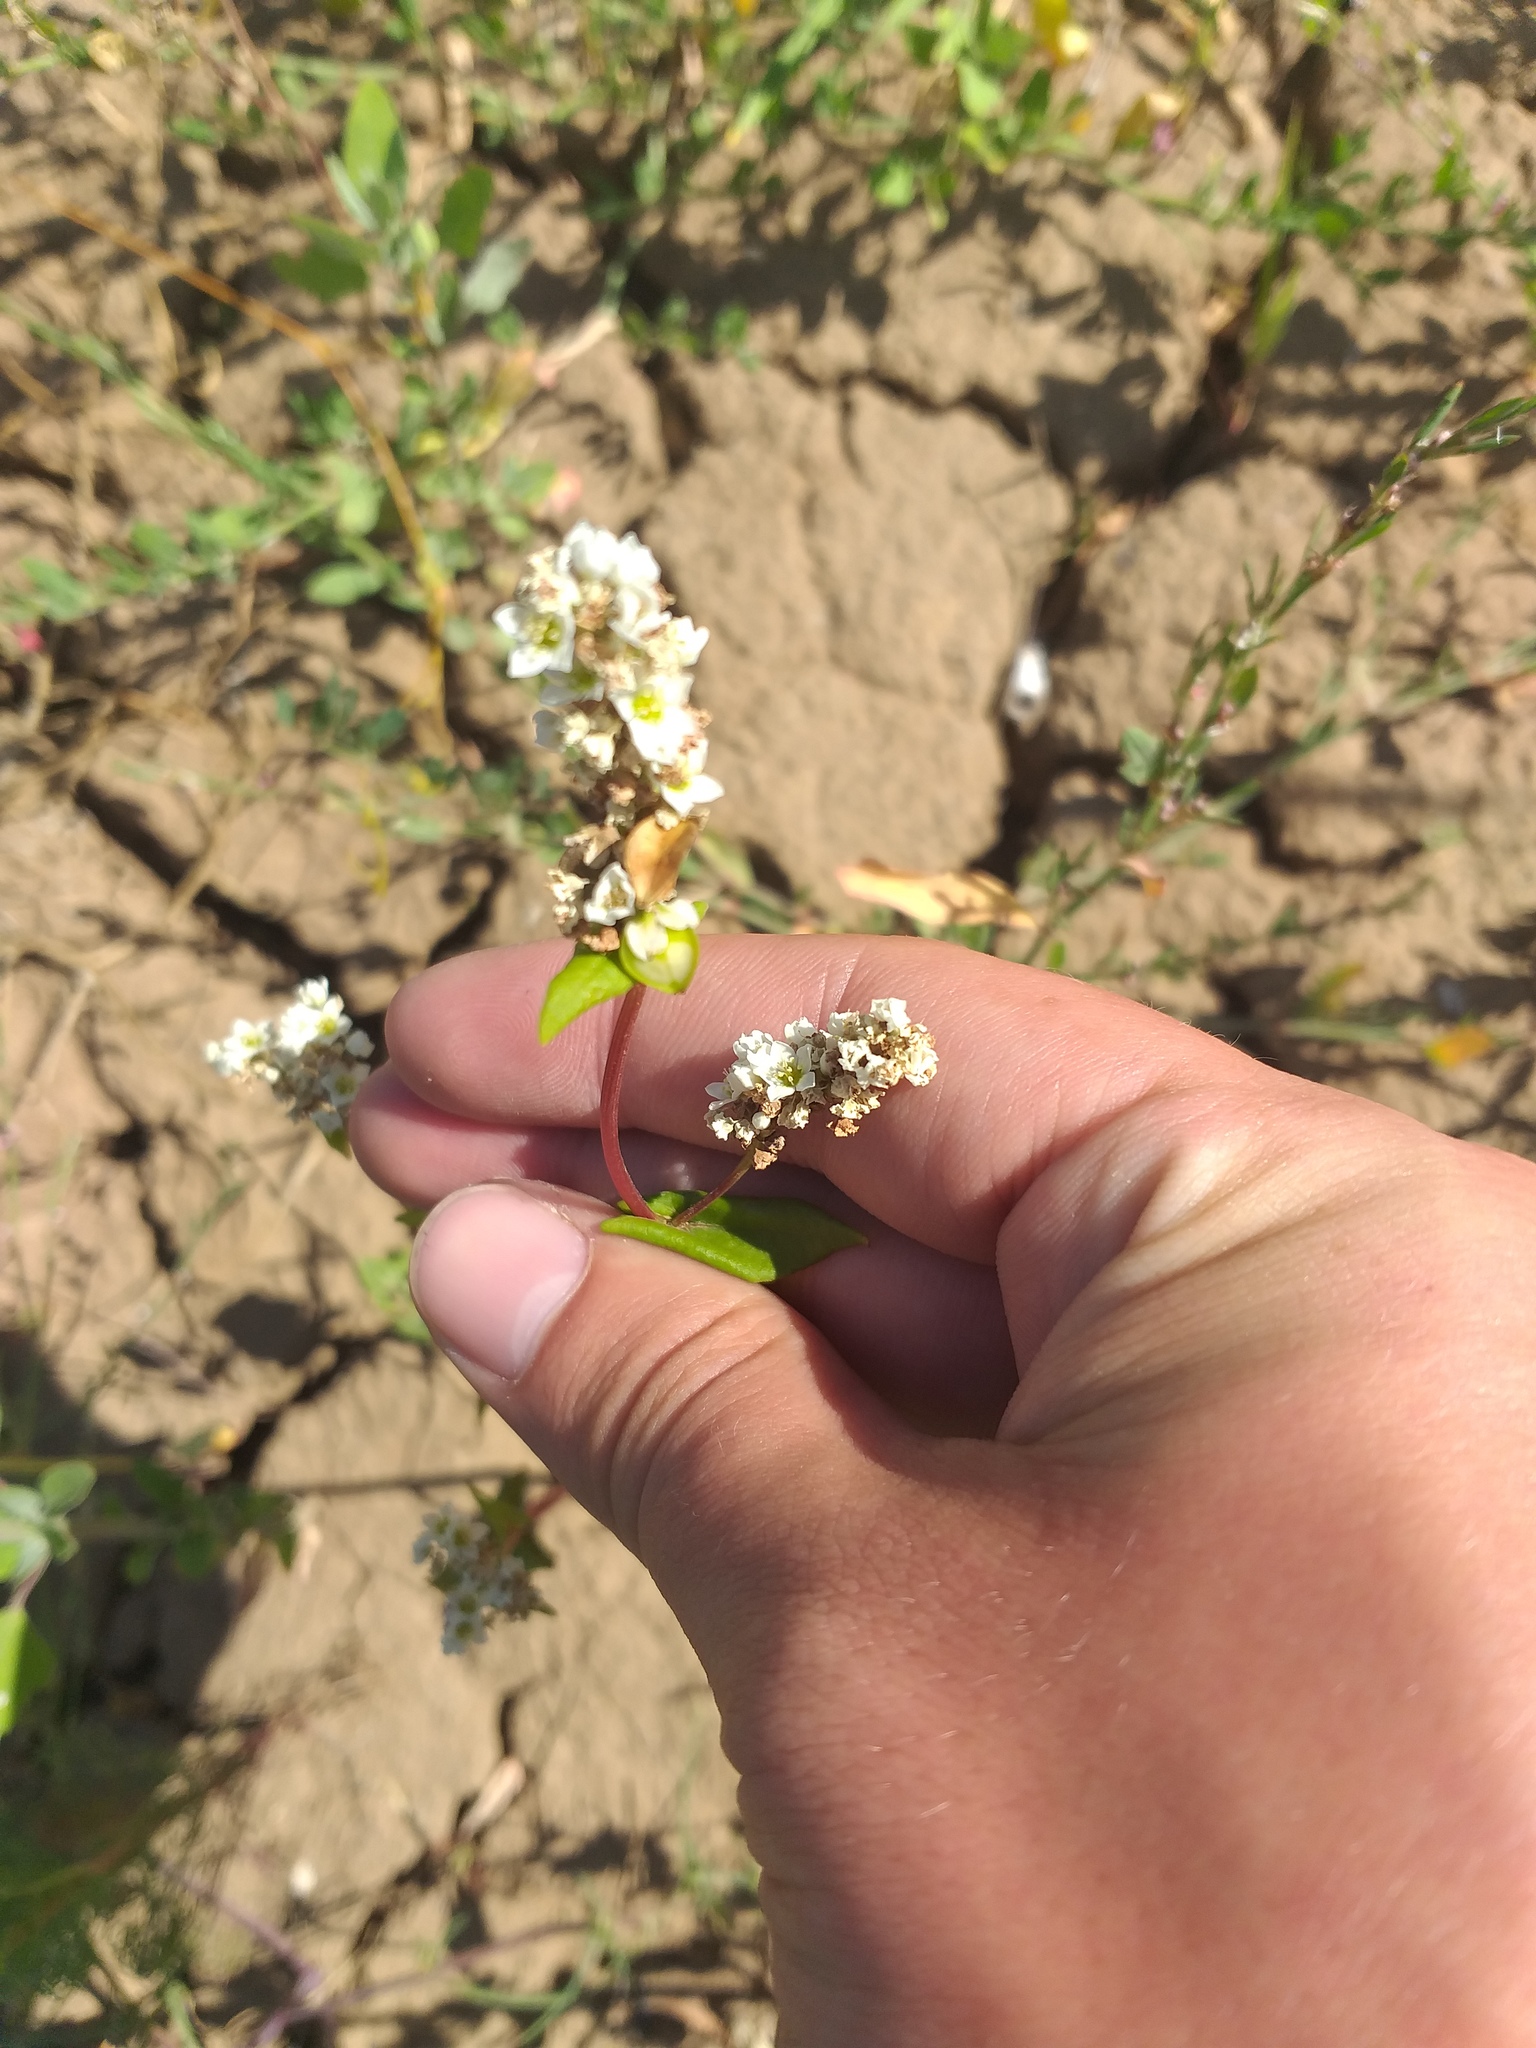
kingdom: Plantae
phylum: Tracheophyta
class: Magnoliopsida
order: Caryophyllales
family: Polygonaceae
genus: Fagopyrum
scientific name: Fagopyrum esculentum
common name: Buckwheat
